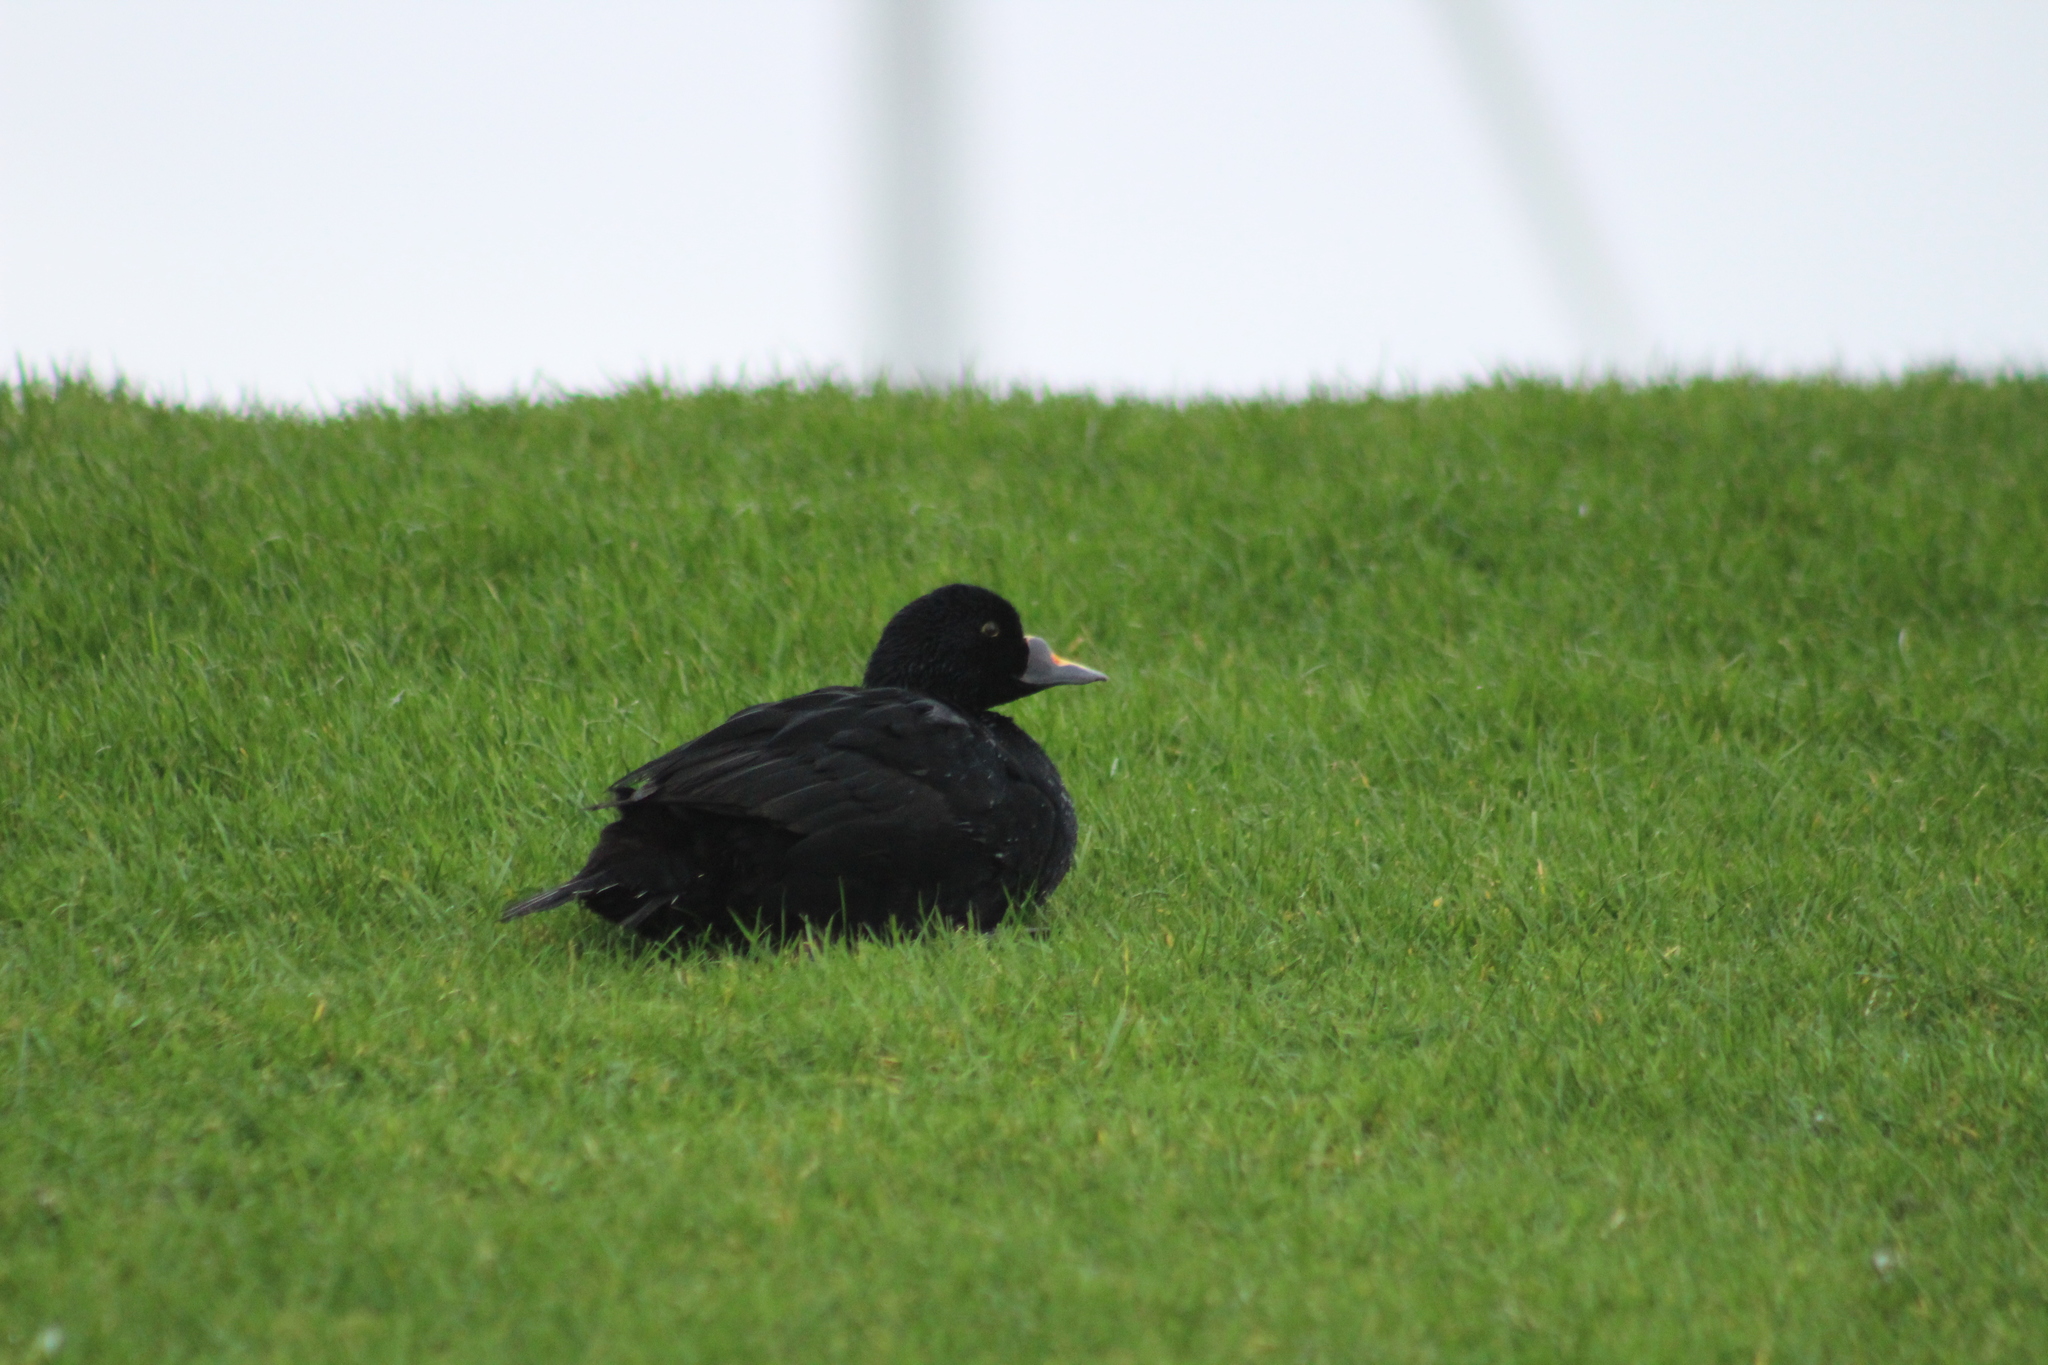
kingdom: Animalia
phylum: Chordata
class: Aves
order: Anseriformes
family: Anatidae
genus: Melanitta
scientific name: Melanitta nigra
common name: Common scoter
